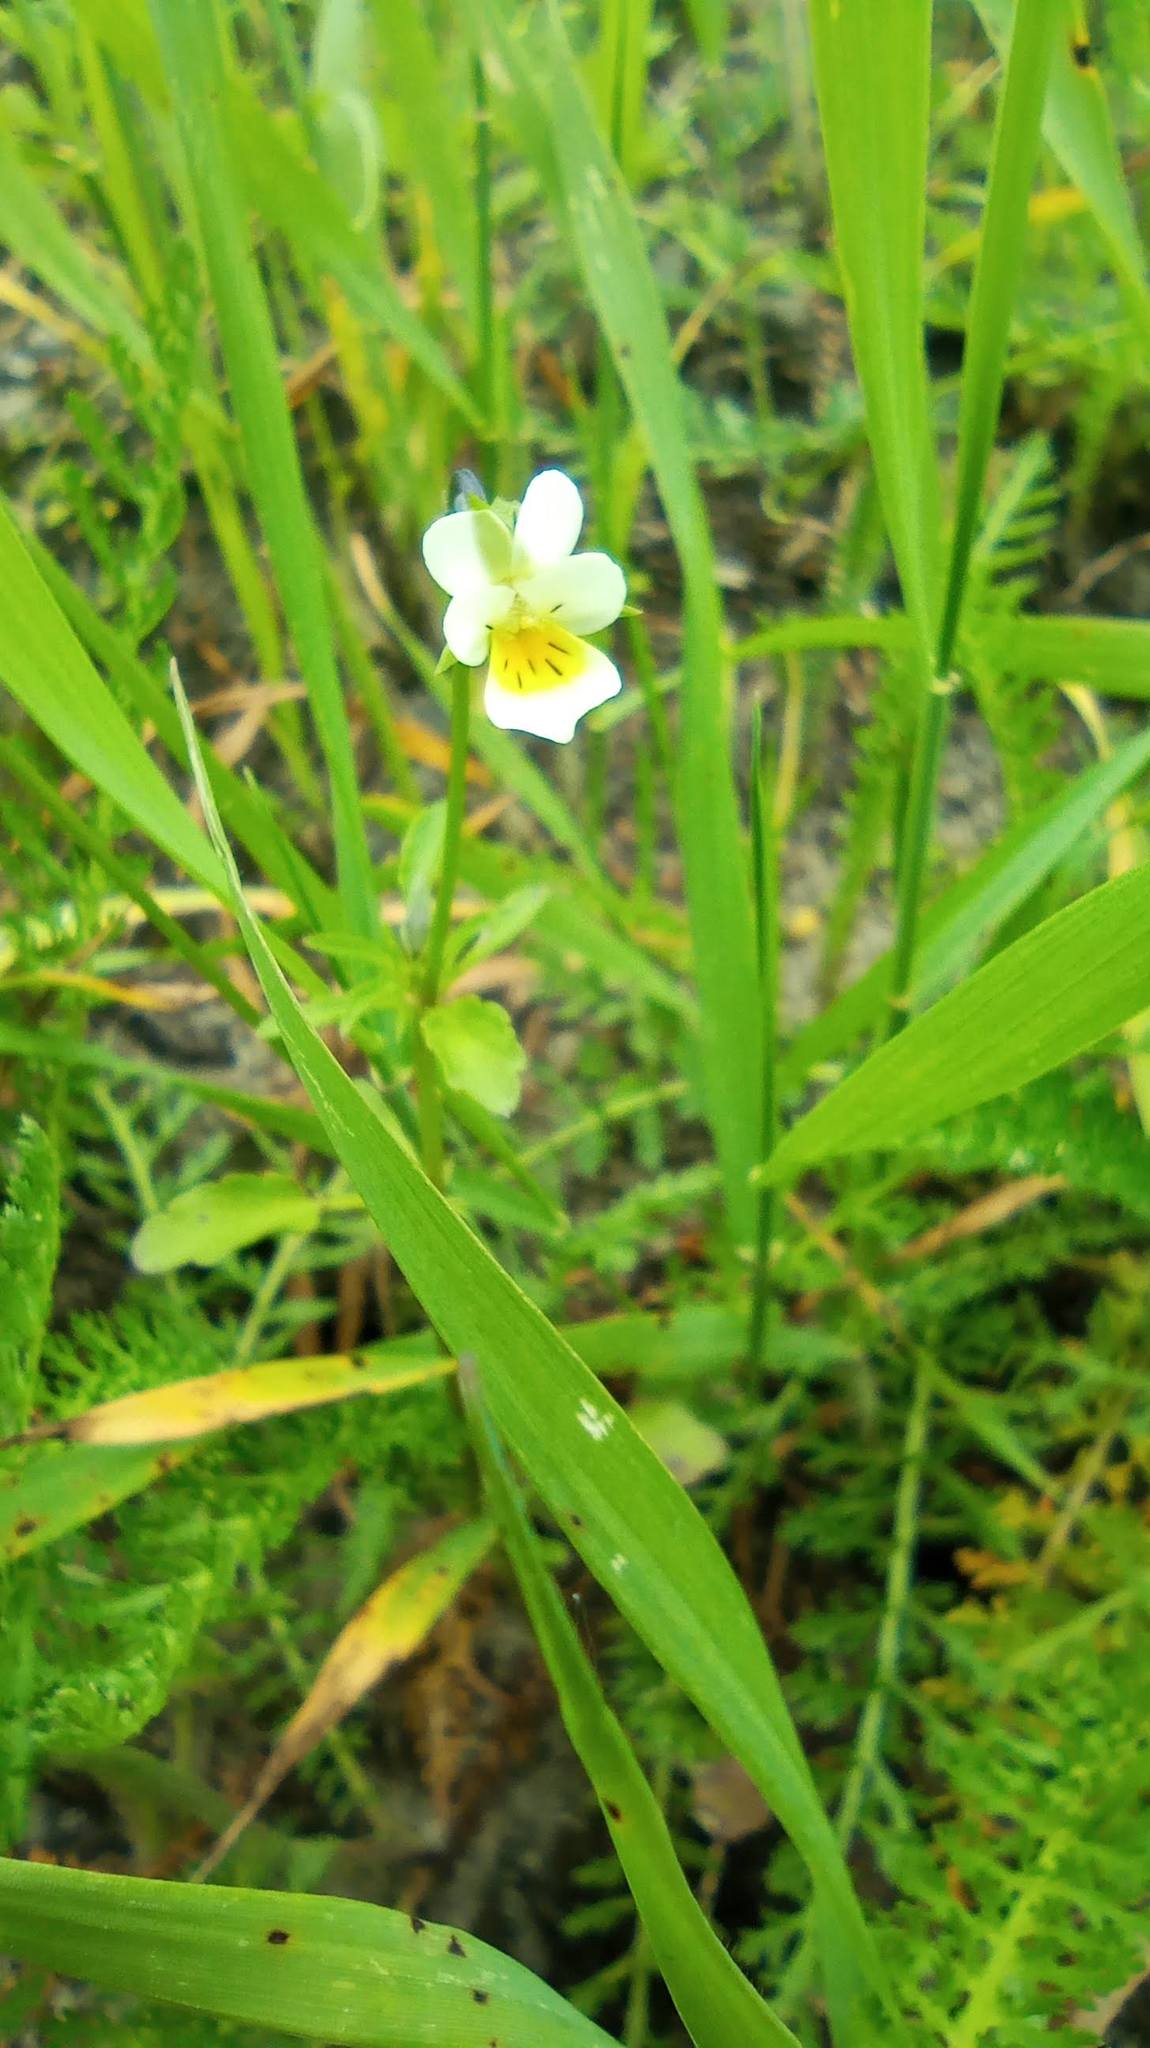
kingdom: Plantae
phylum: Tracheophyta
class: Magnoliopsida
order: Malpighiales
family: Violaceae
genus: Viola
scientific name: Viola arvensis
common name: Field pansy
